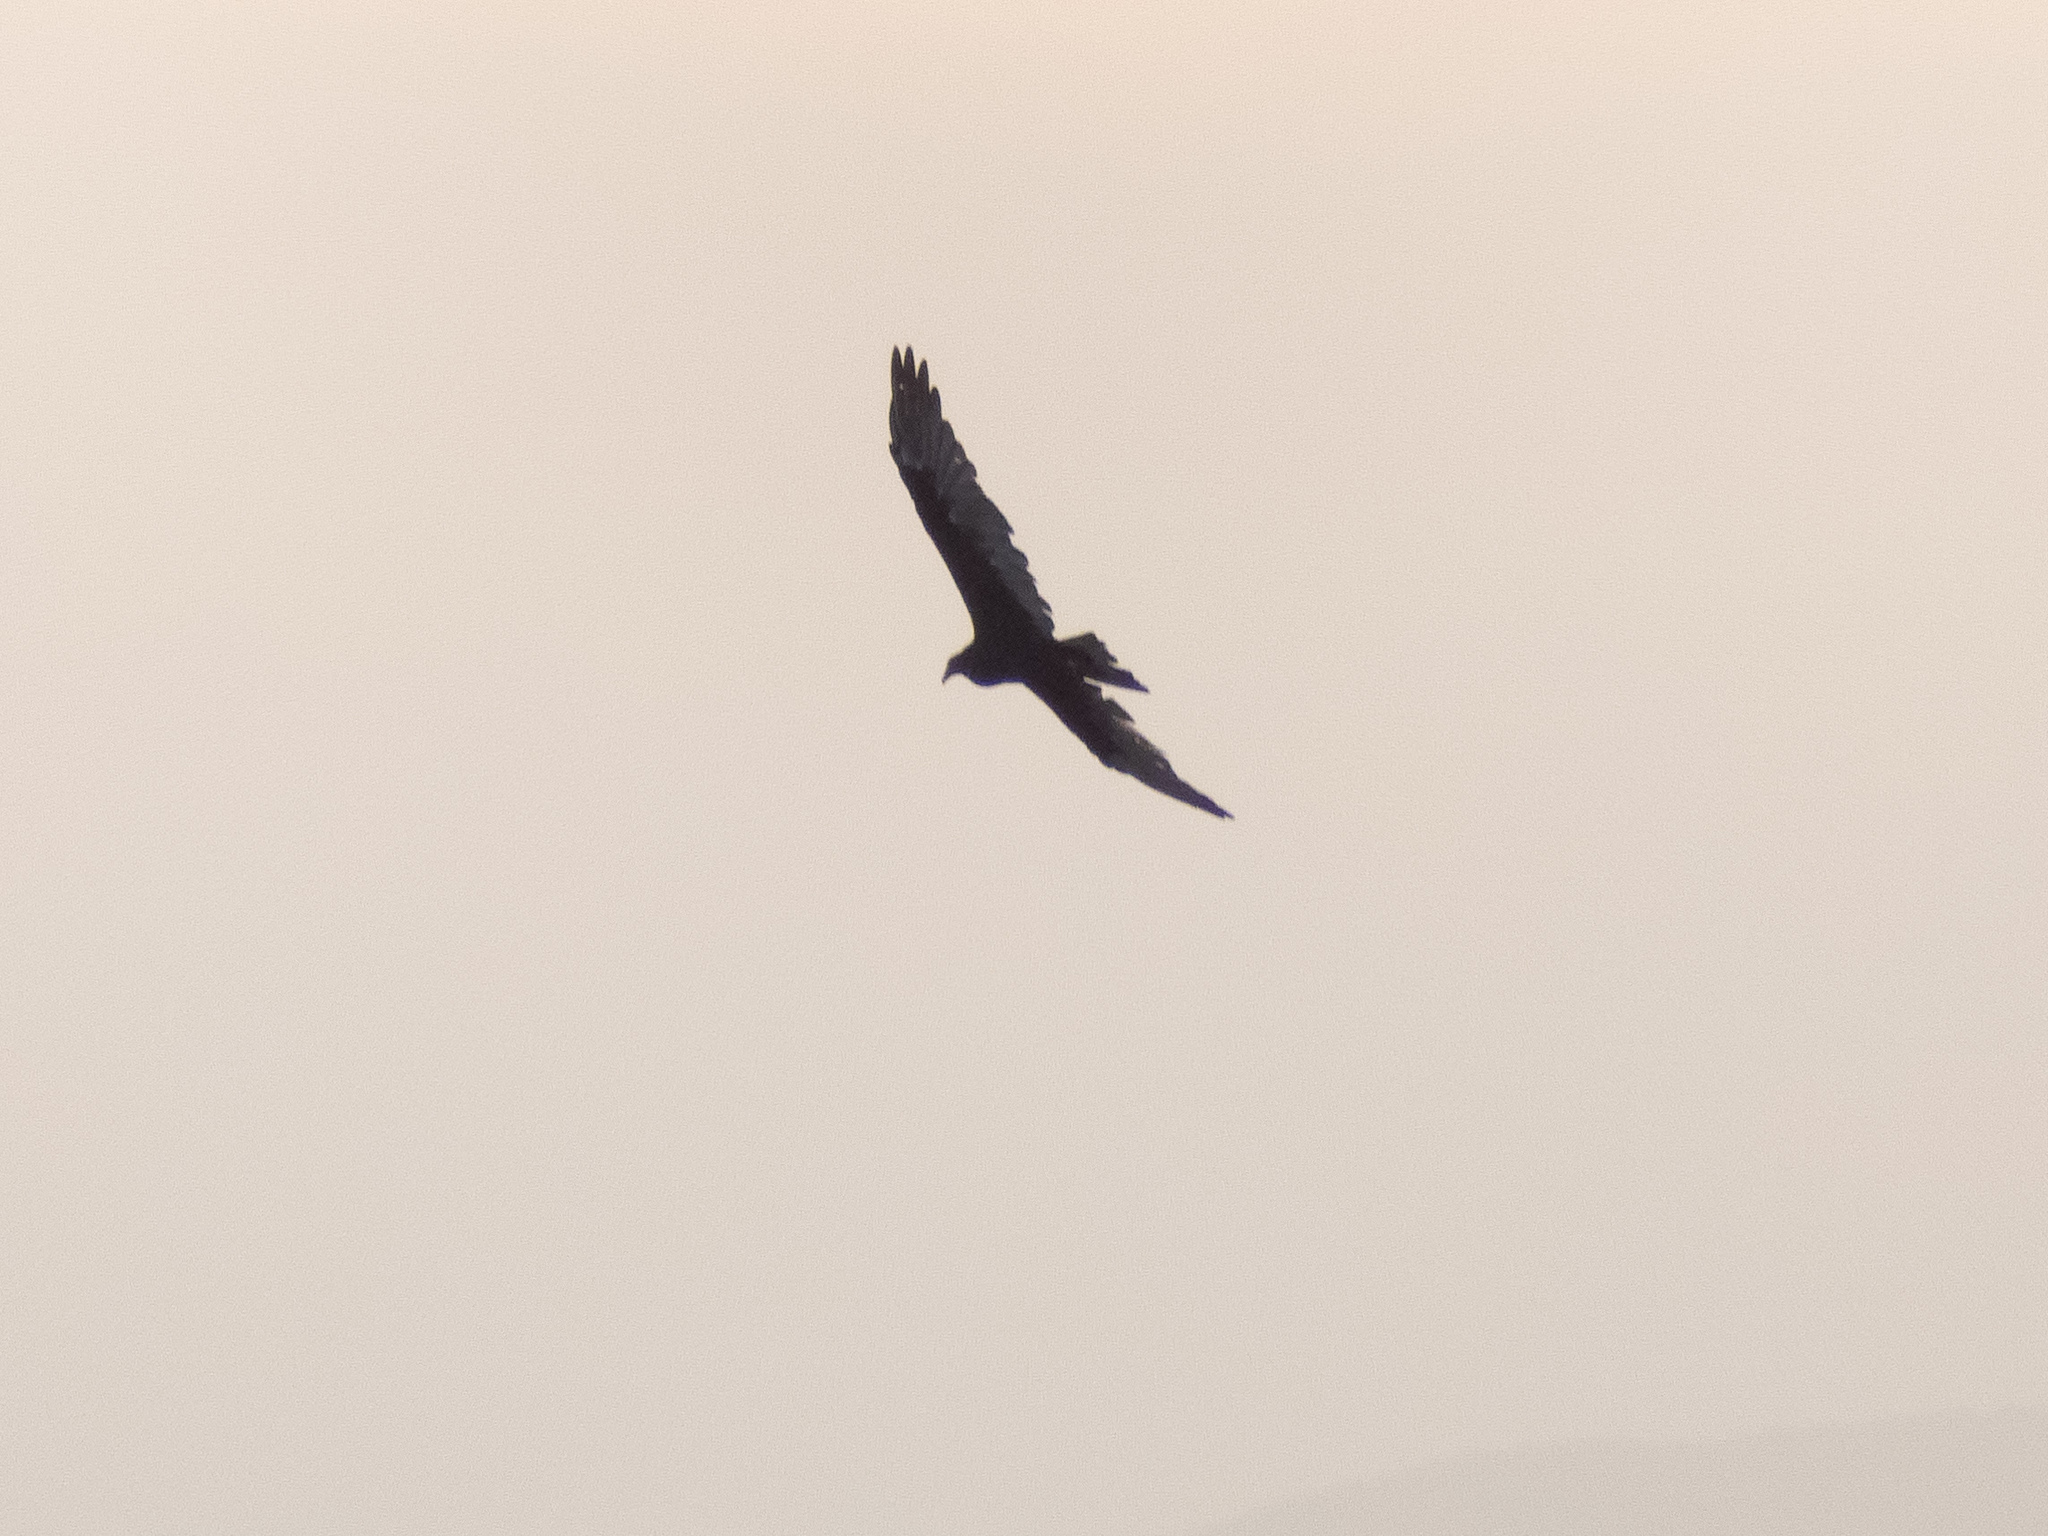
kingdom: Animalia
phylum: Chordata
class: Aves
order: Accipitriformes
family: Cathartidae
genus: Cathartes
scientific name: Cathartes aura
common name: Turkey vulture
